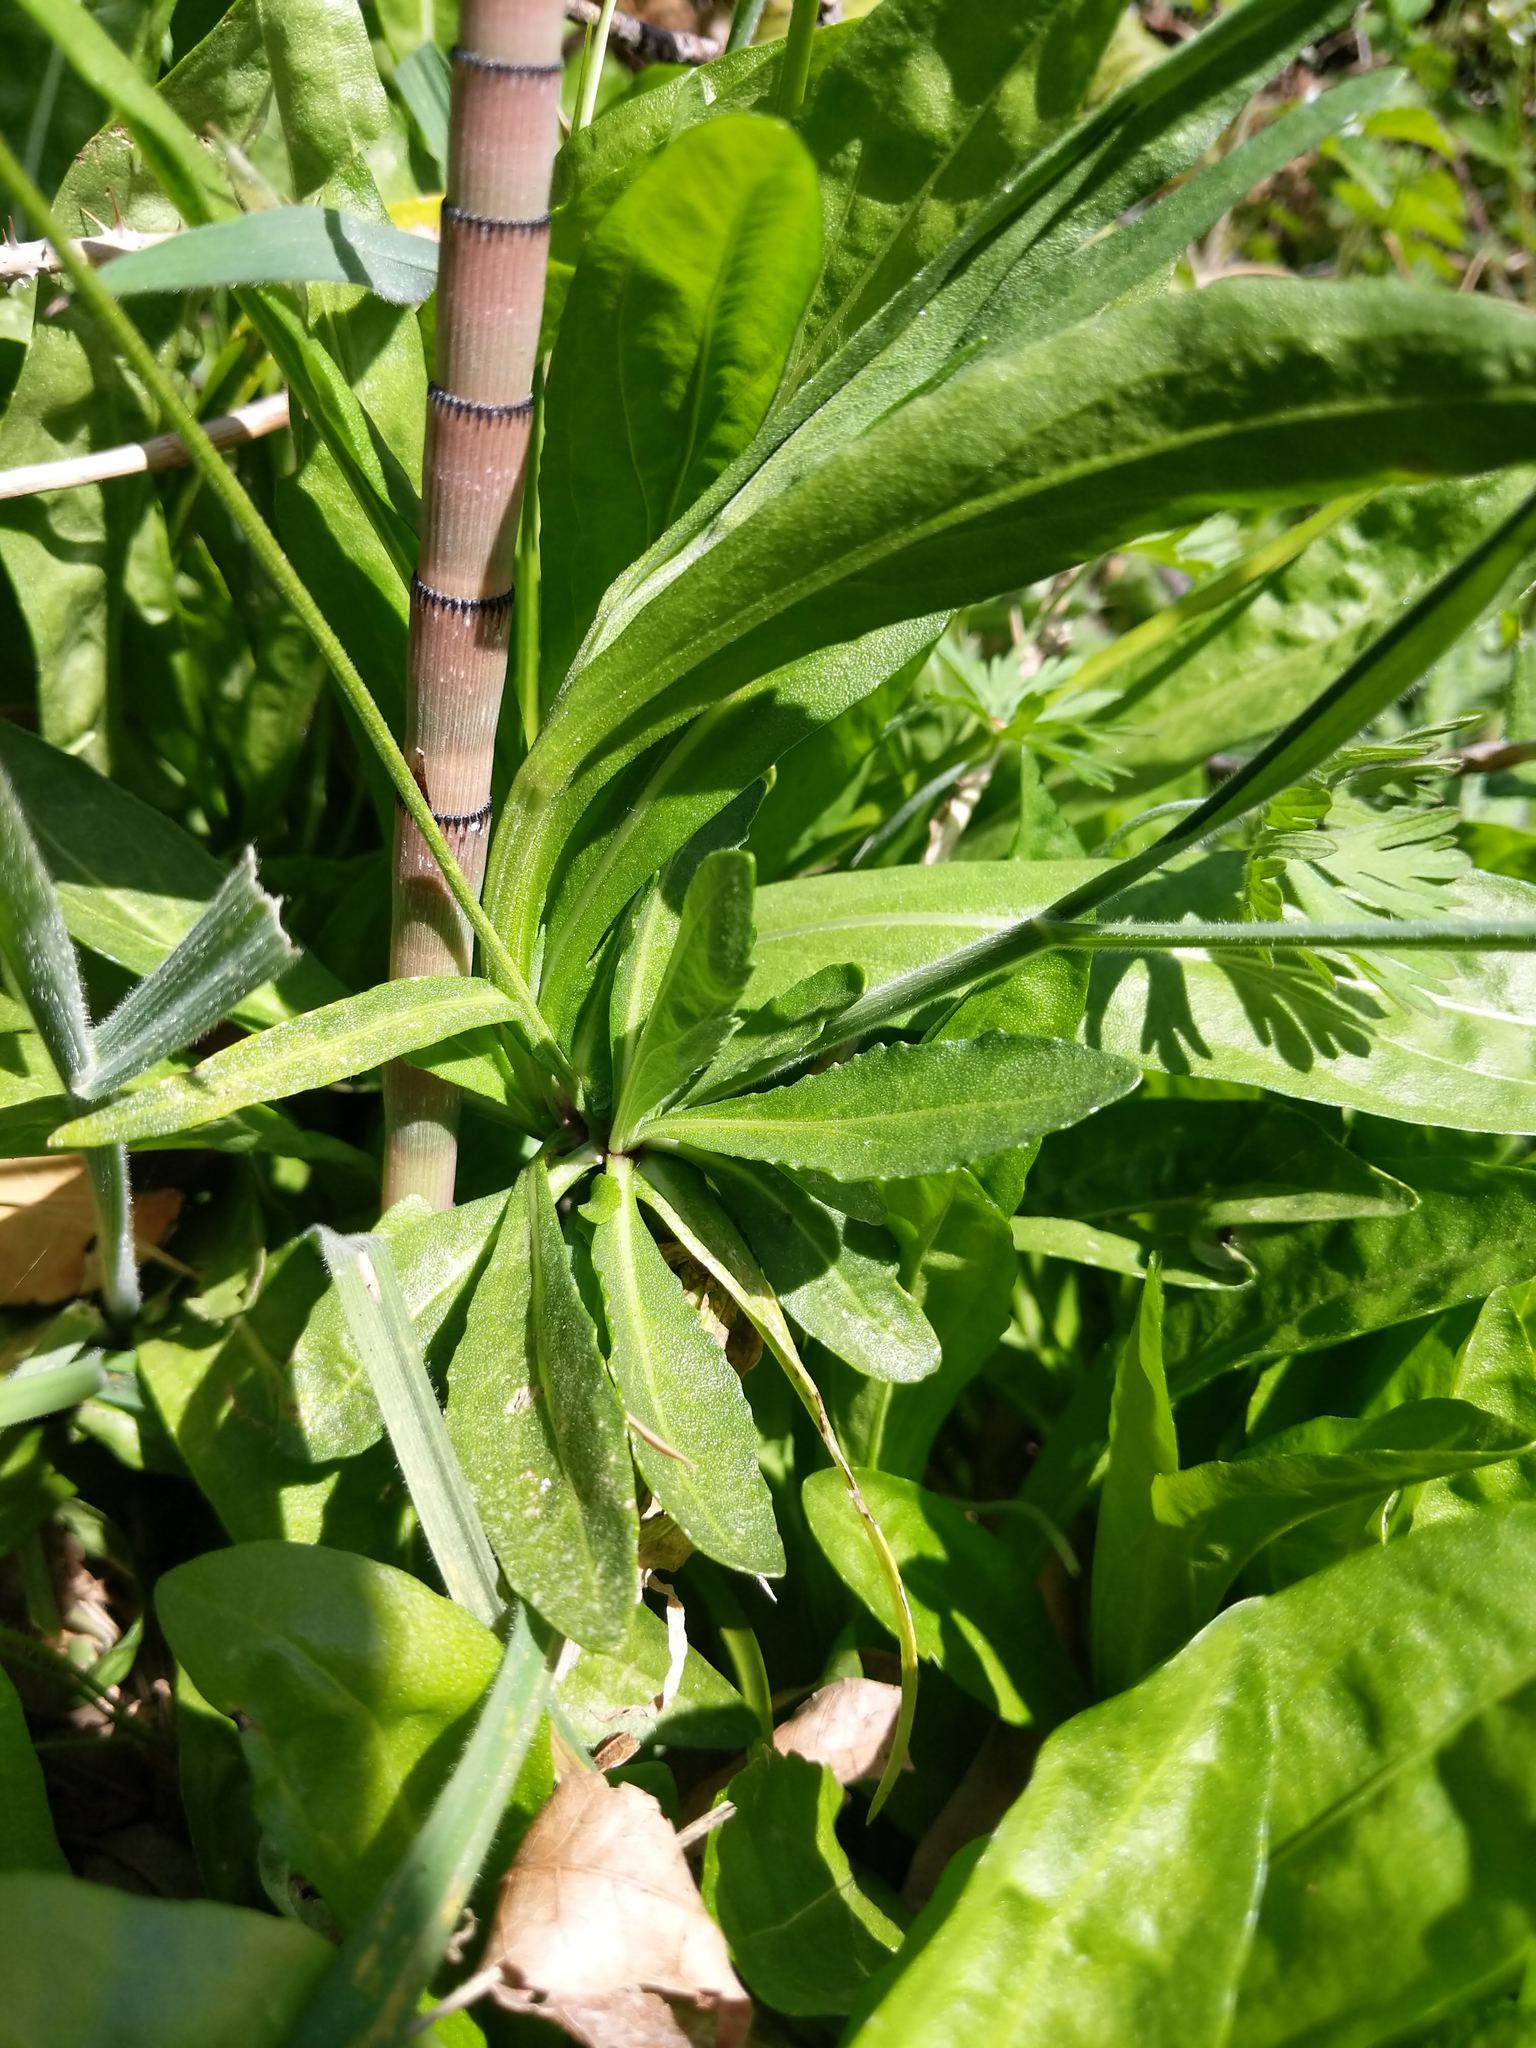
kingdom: Plantae
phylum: Tracheophyta
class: Magnoliopsida
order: Asterales
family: Asteraceae
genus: Helenium
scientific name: Helenium puberulum
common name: Sneezewort
